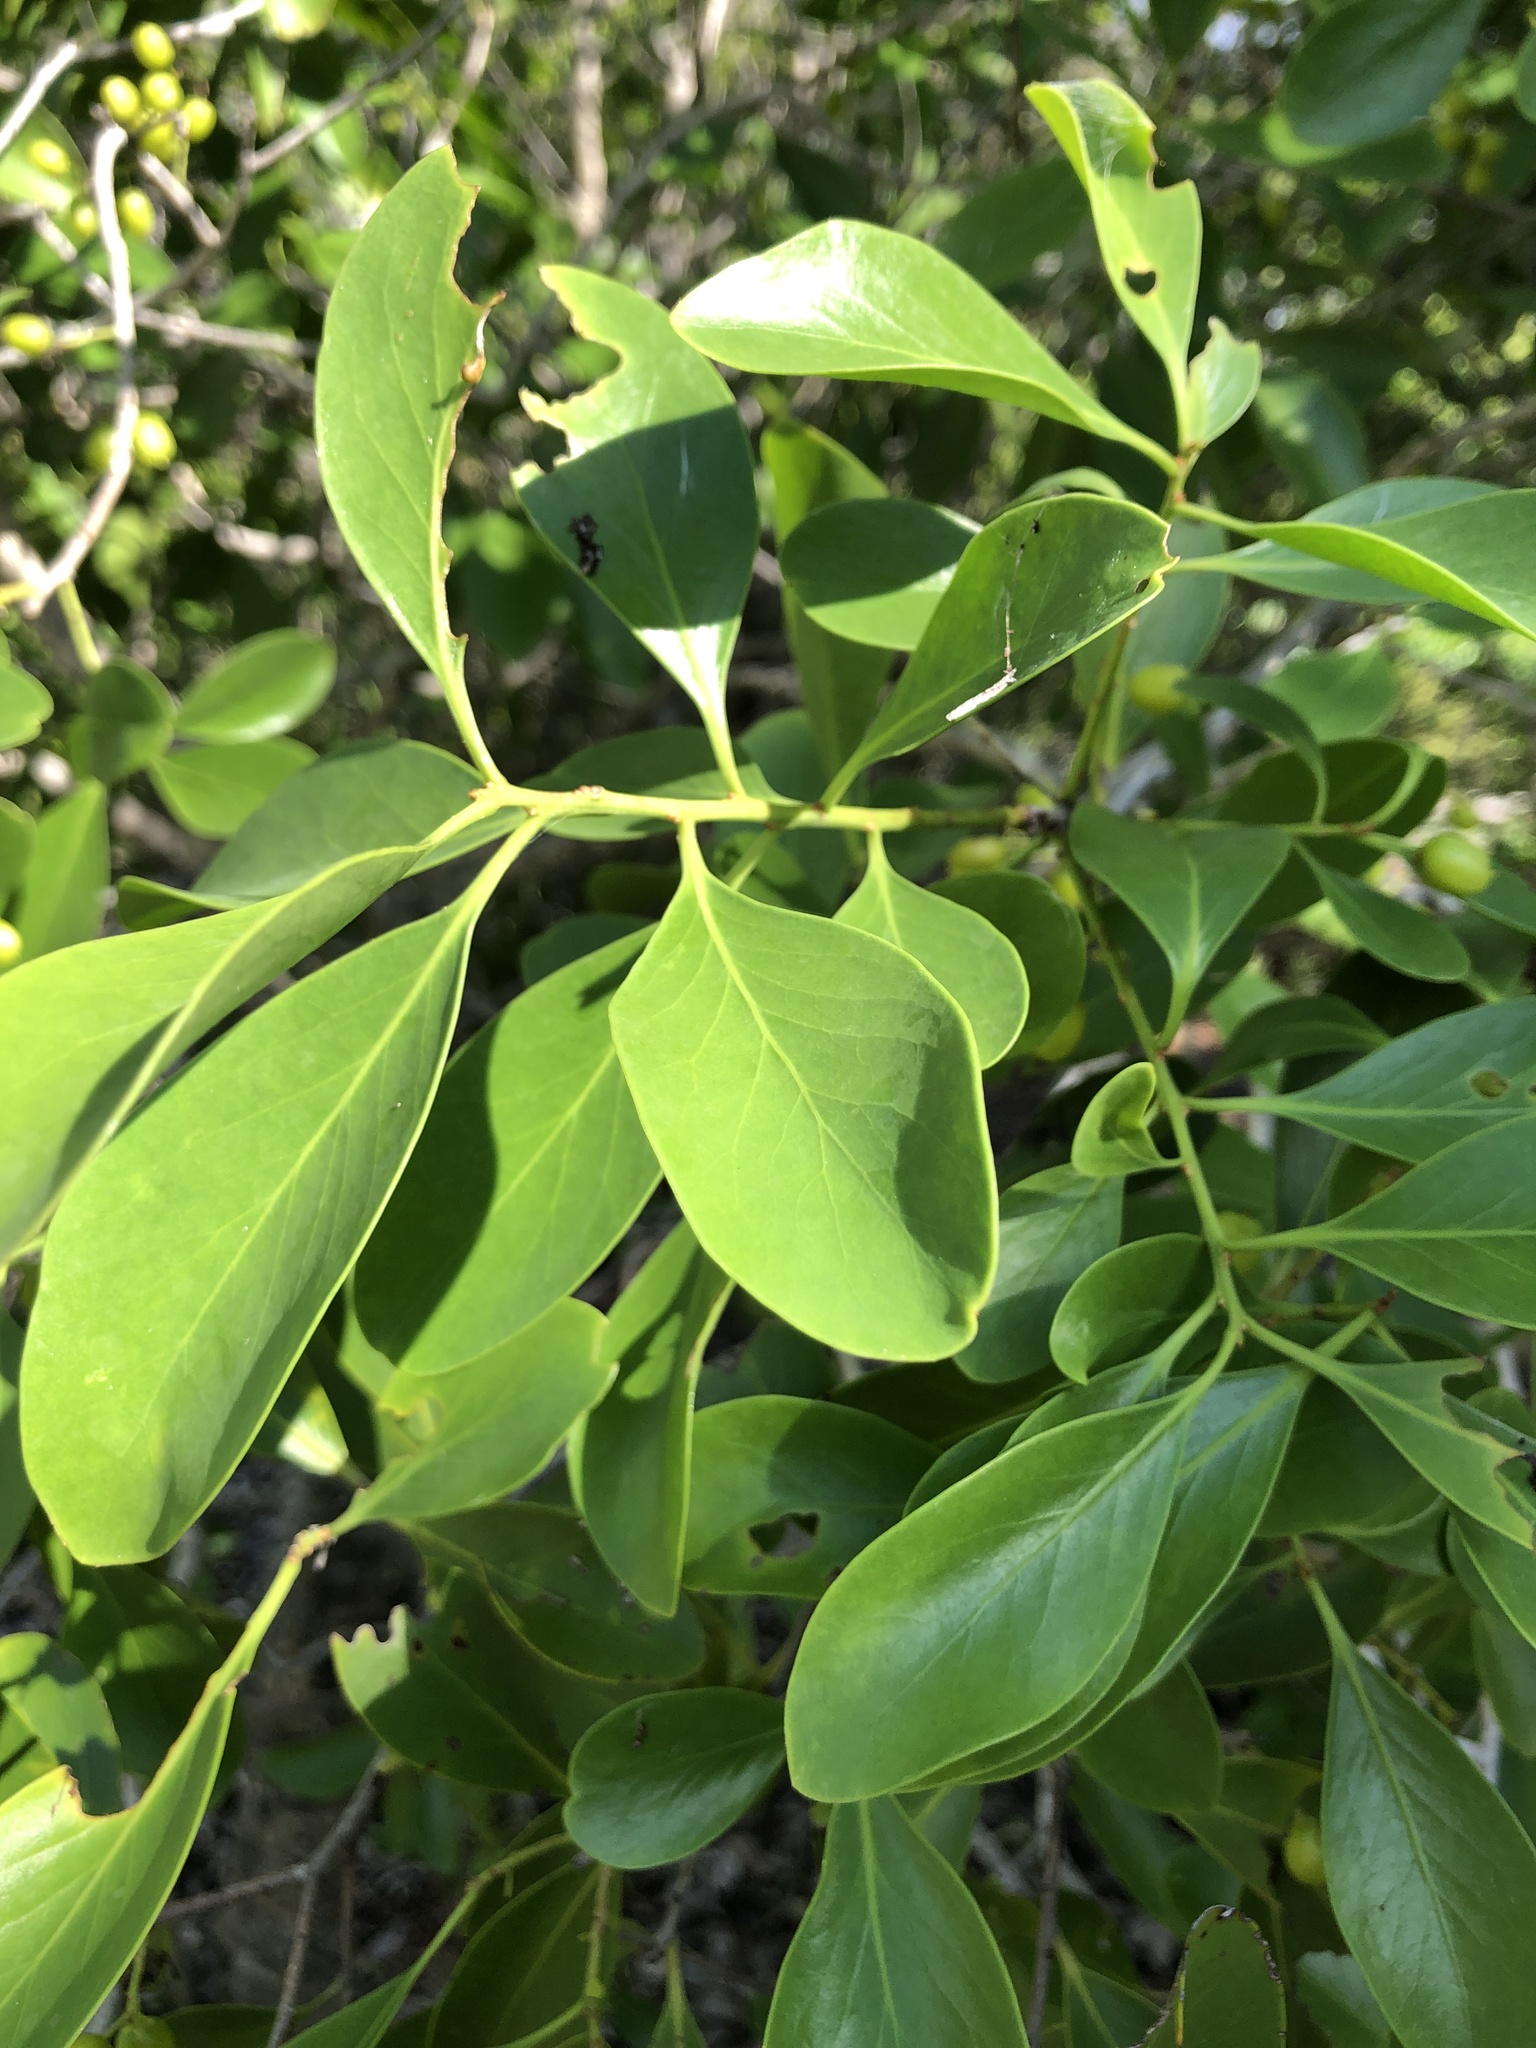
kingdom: Plantae
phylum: Tracheophyta
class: Magnoliopsida
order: Celastrales
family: Celastraceae
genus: Denhamia
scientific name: Denhamia disperma
